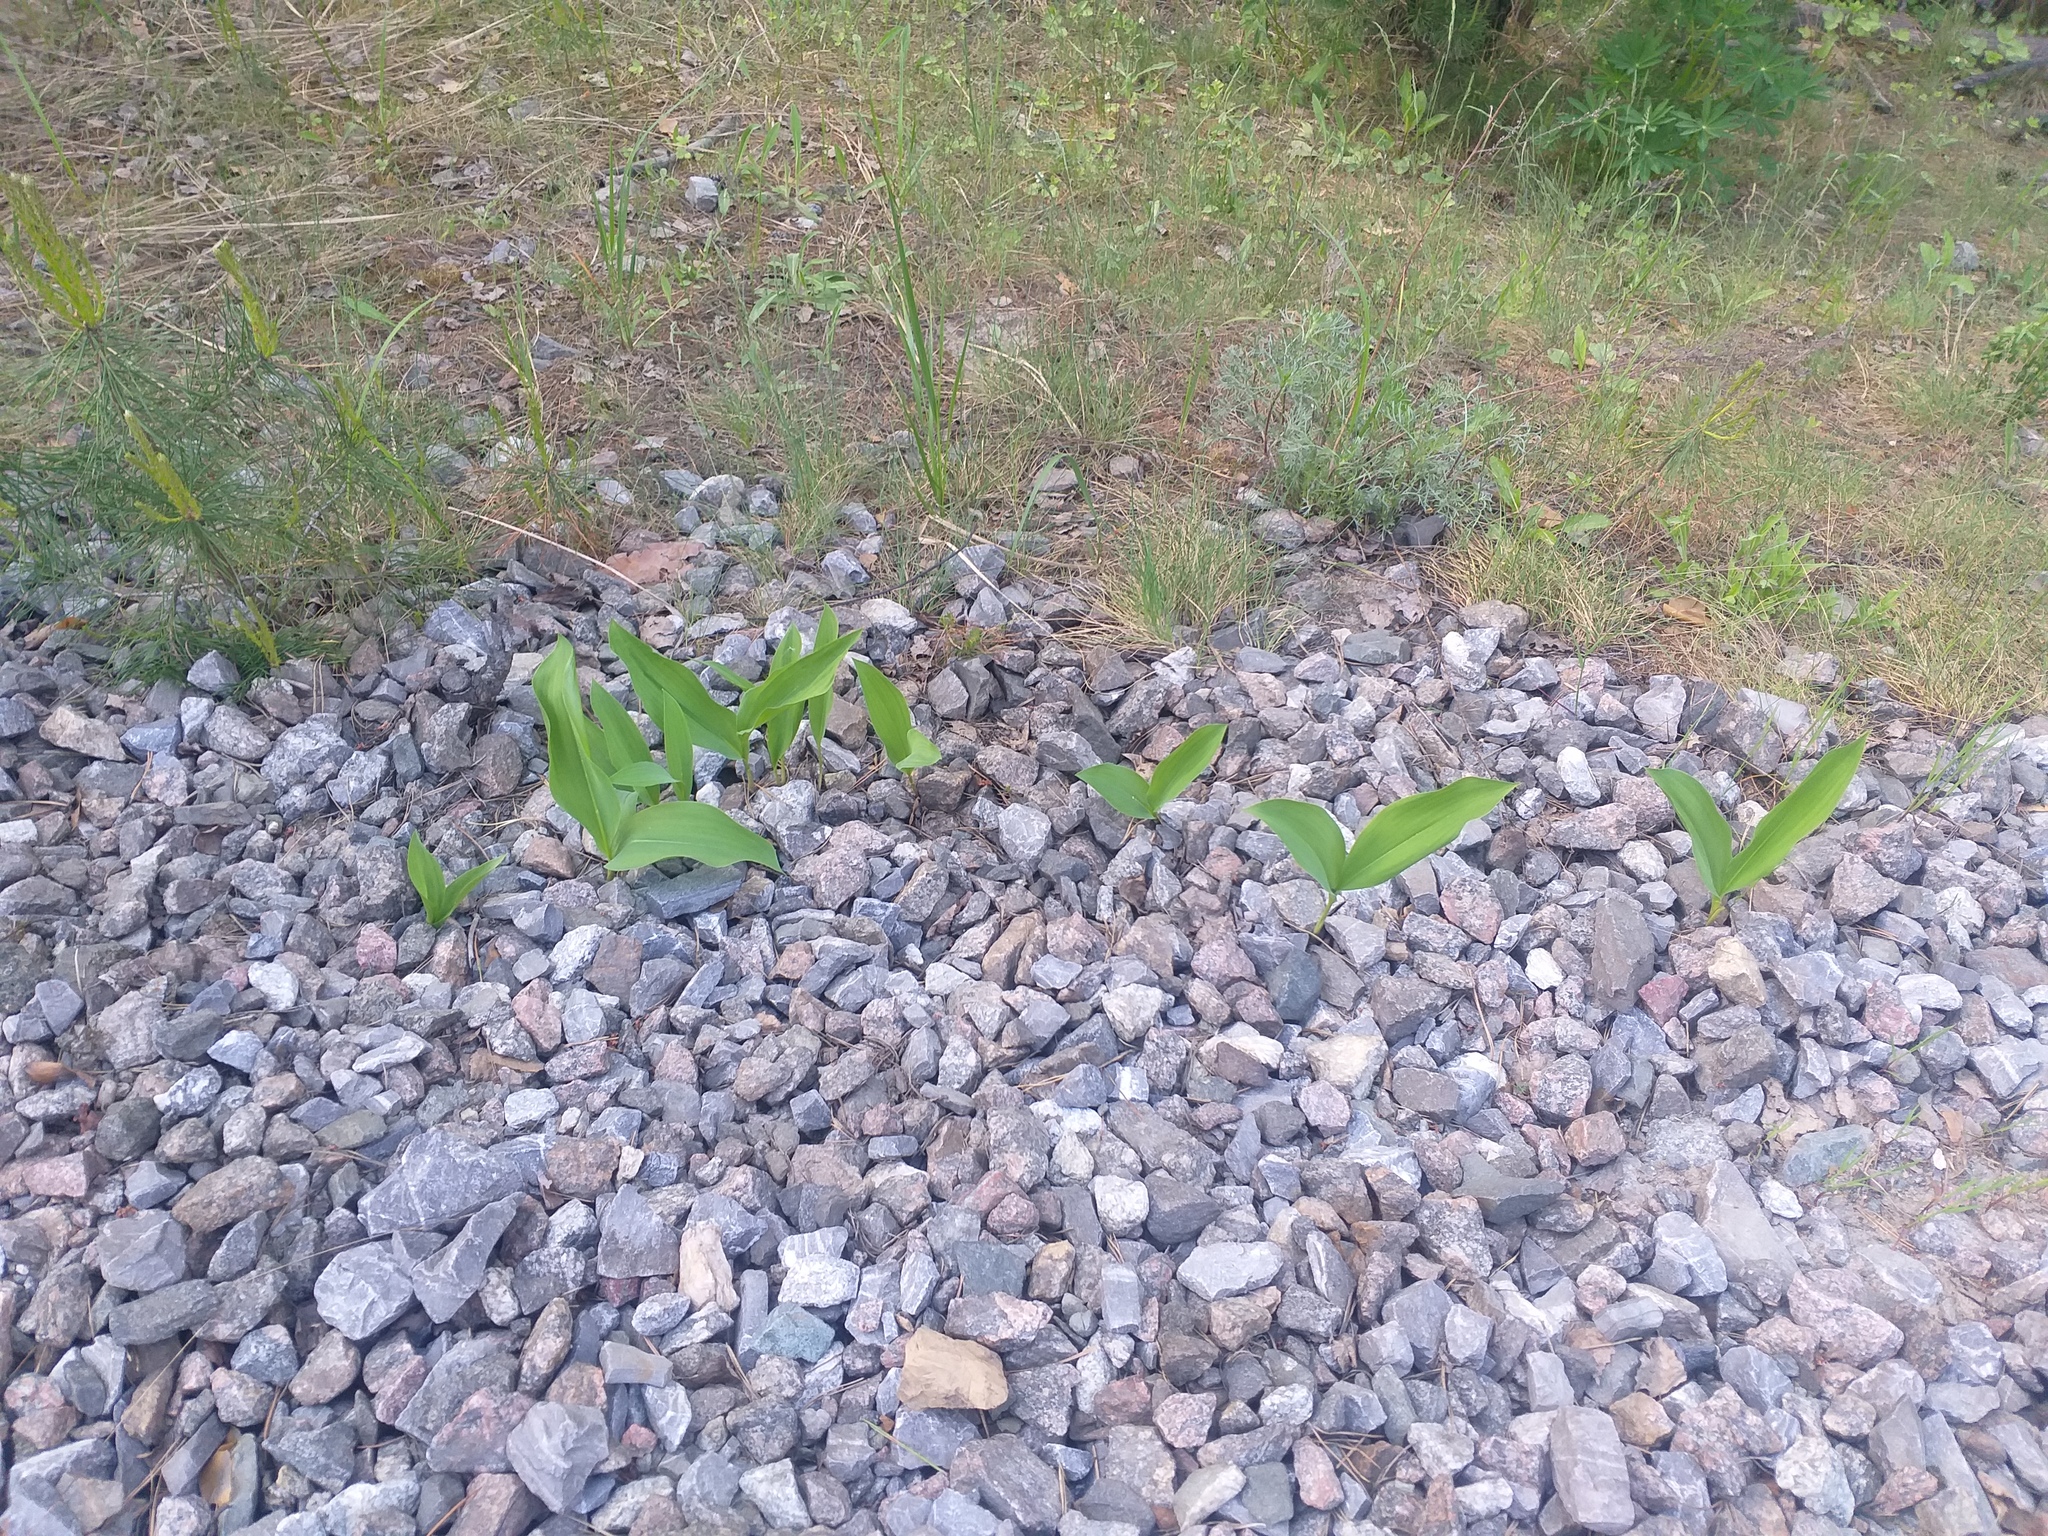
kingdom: Plantae
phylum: Tracheophyta
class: Liliopsida
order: Asparagales
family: Asparagaceae
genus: Convallaria
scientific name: Convallaria majalis
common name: Lily-of-the-valley
